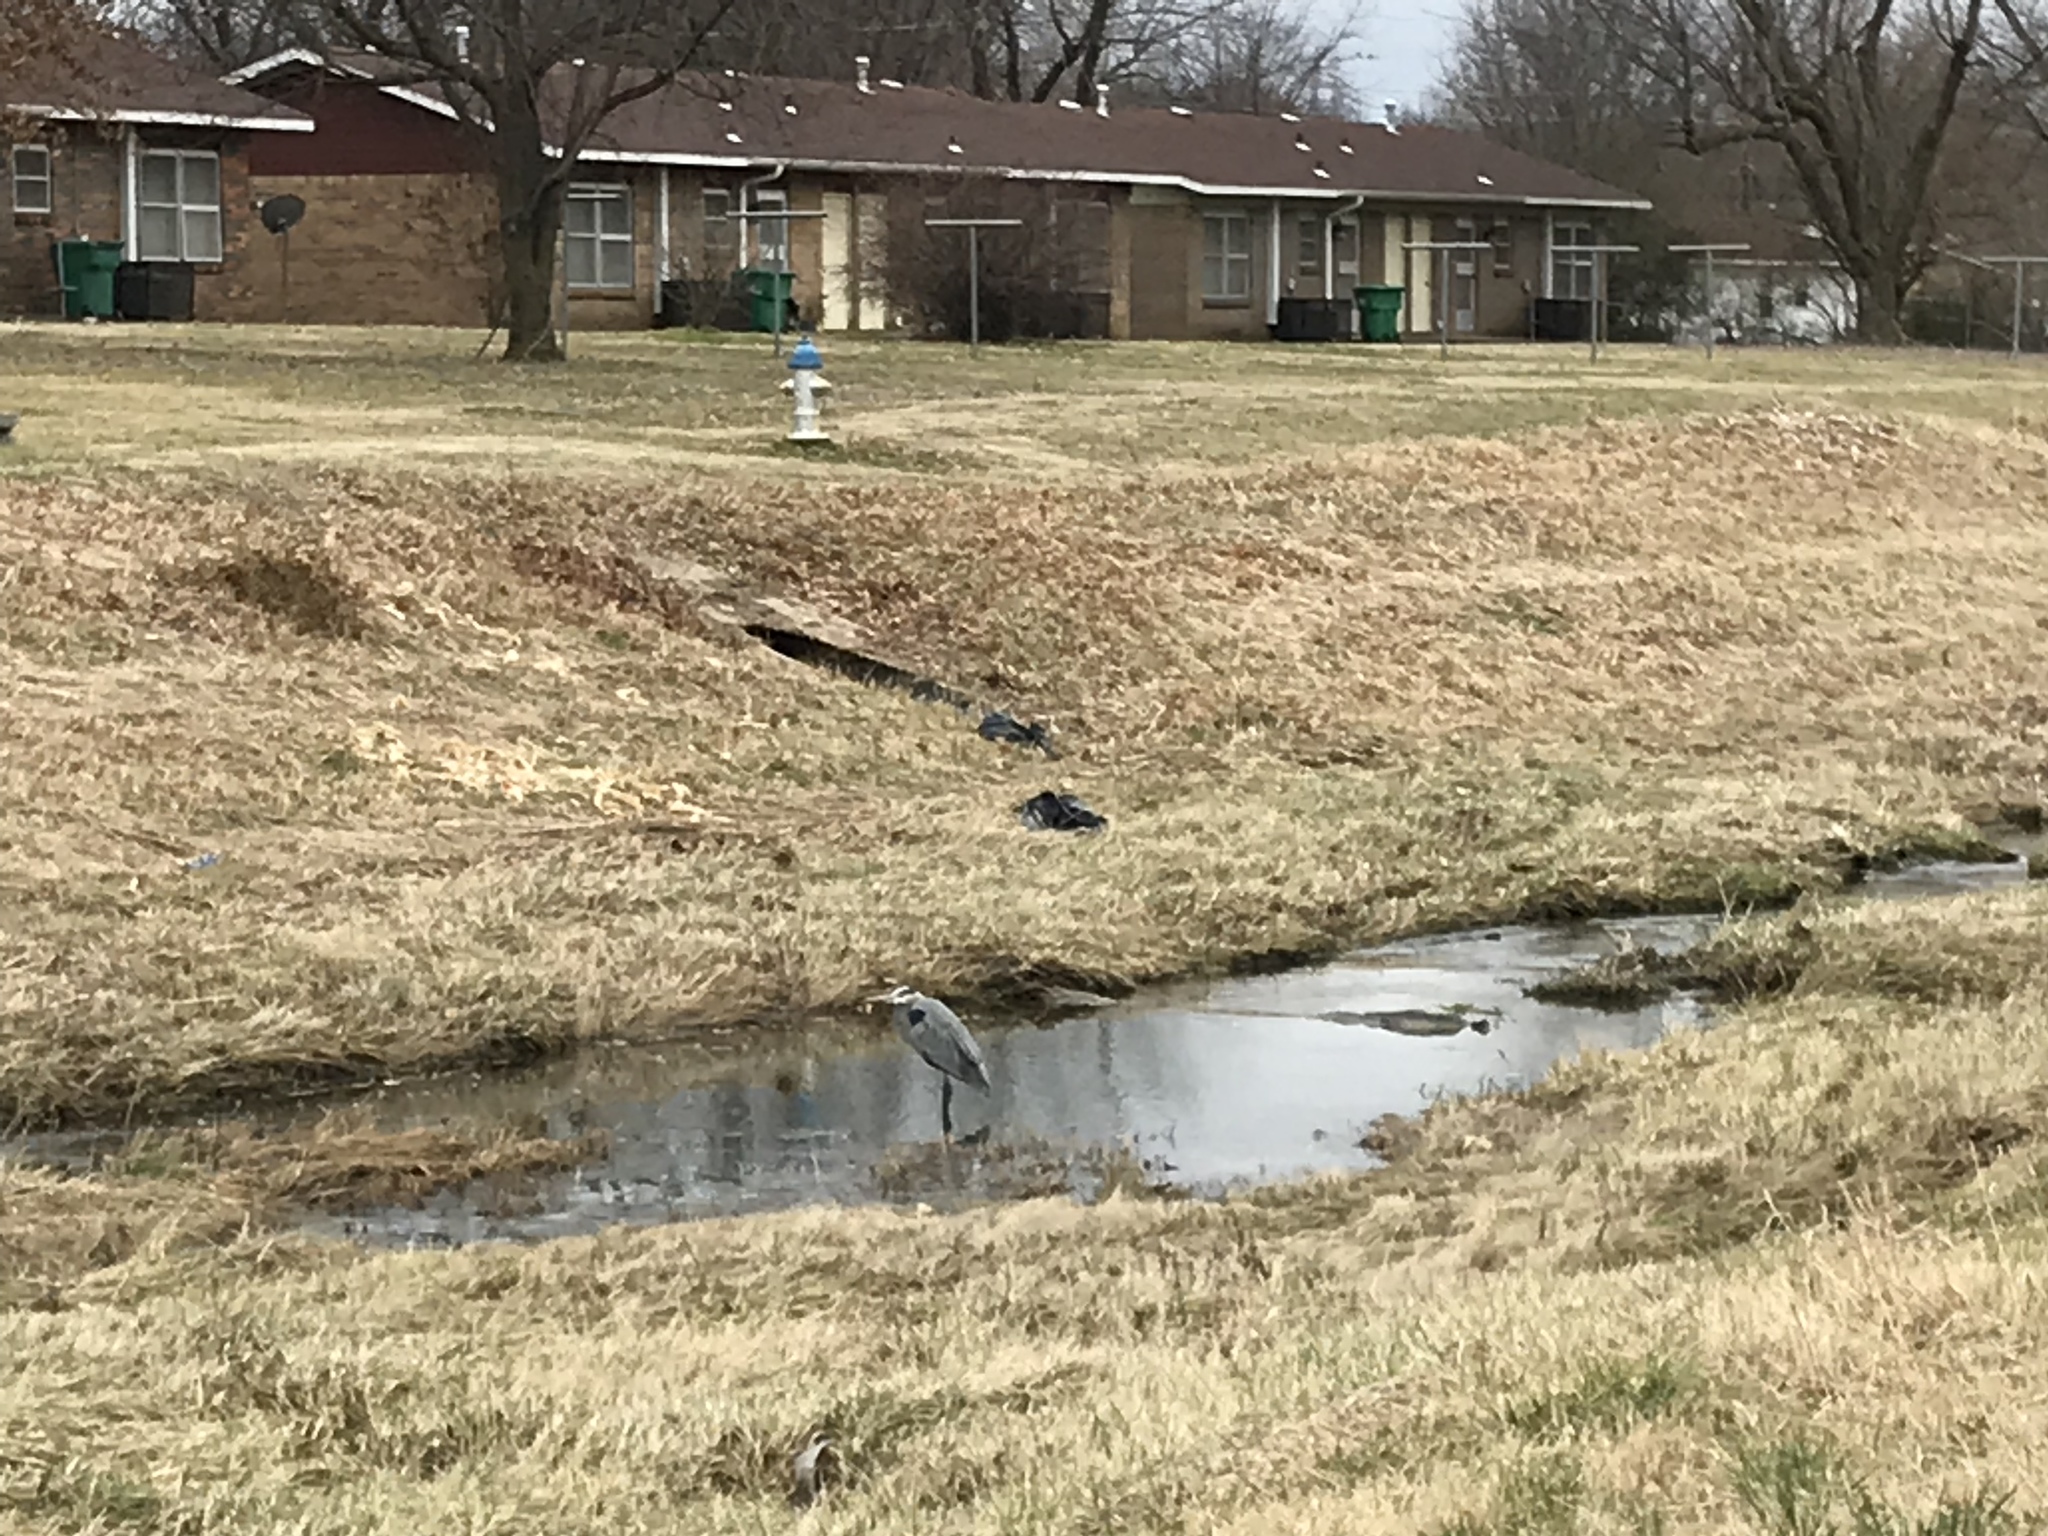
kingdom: Animalia
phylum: Chordata
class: Aves
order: Pelecaniformes
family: Ardeidae
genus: Ardea
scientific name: Ardea herodias
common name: Great blue heron
